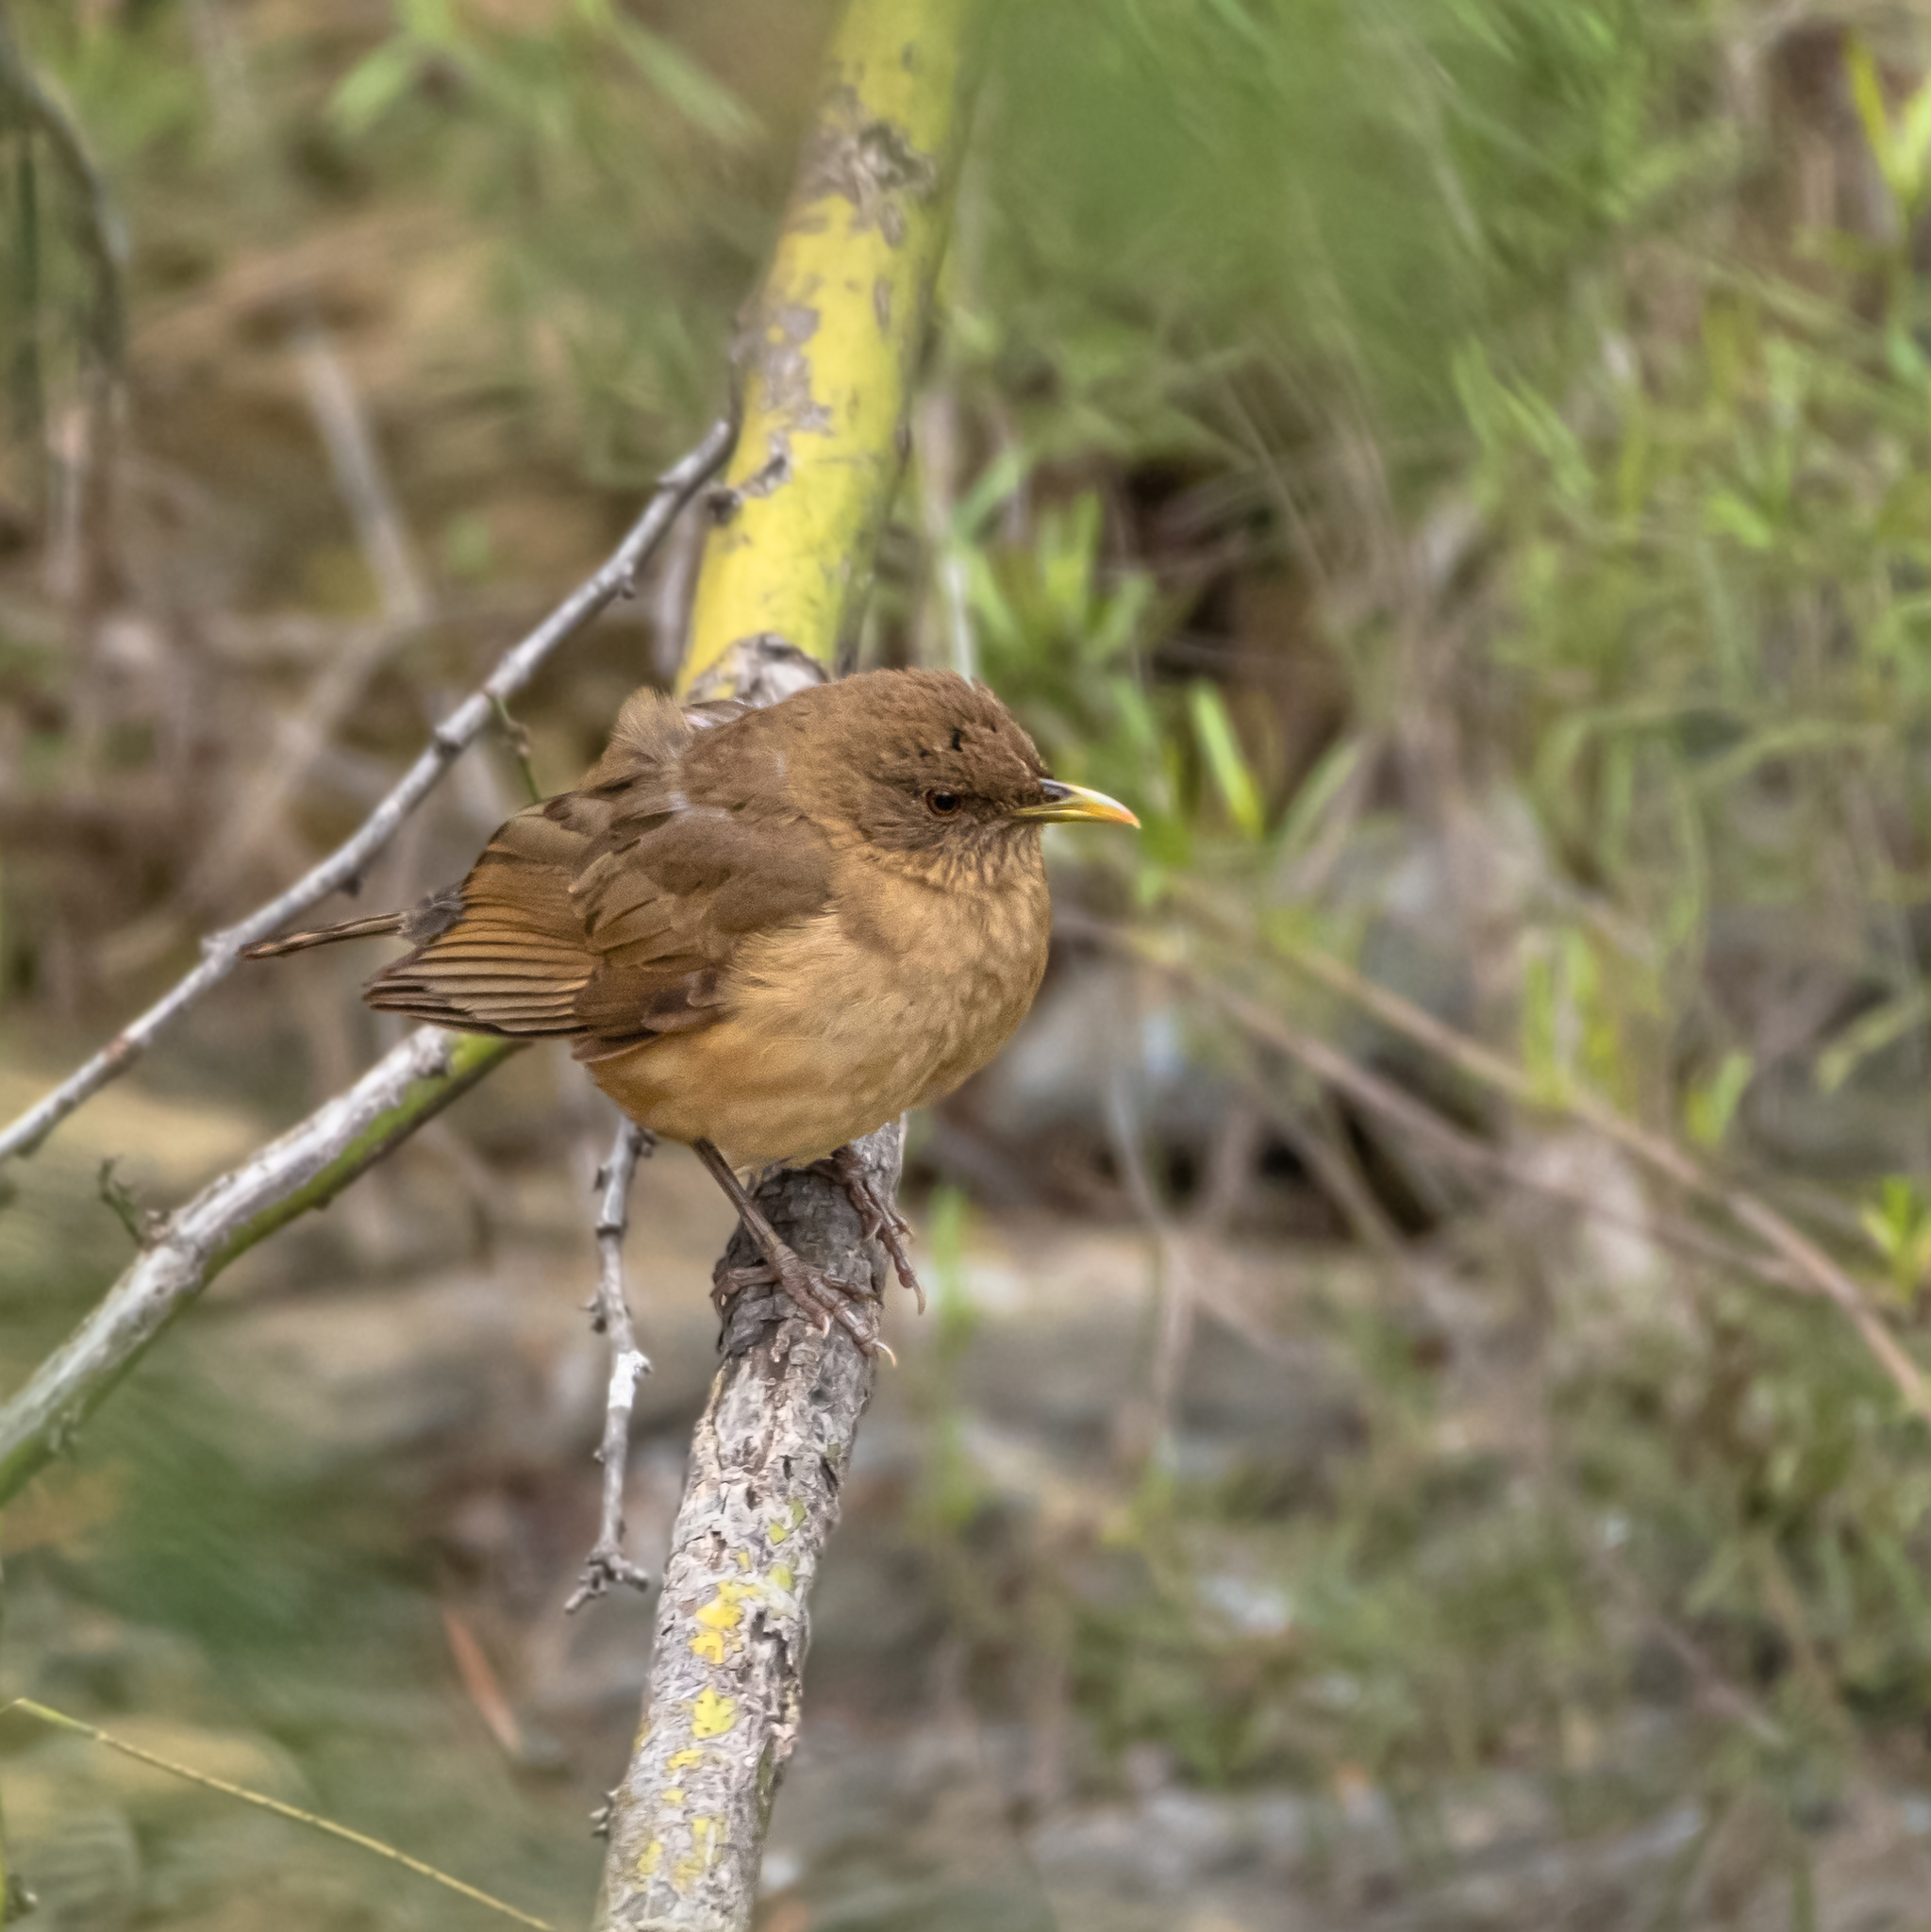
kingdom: Animalia
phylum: Chordata
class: Aves
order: Passeriformes
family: Turdidae
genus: Turdus
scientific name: Turdus grayi
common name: Clay-colored thrush
